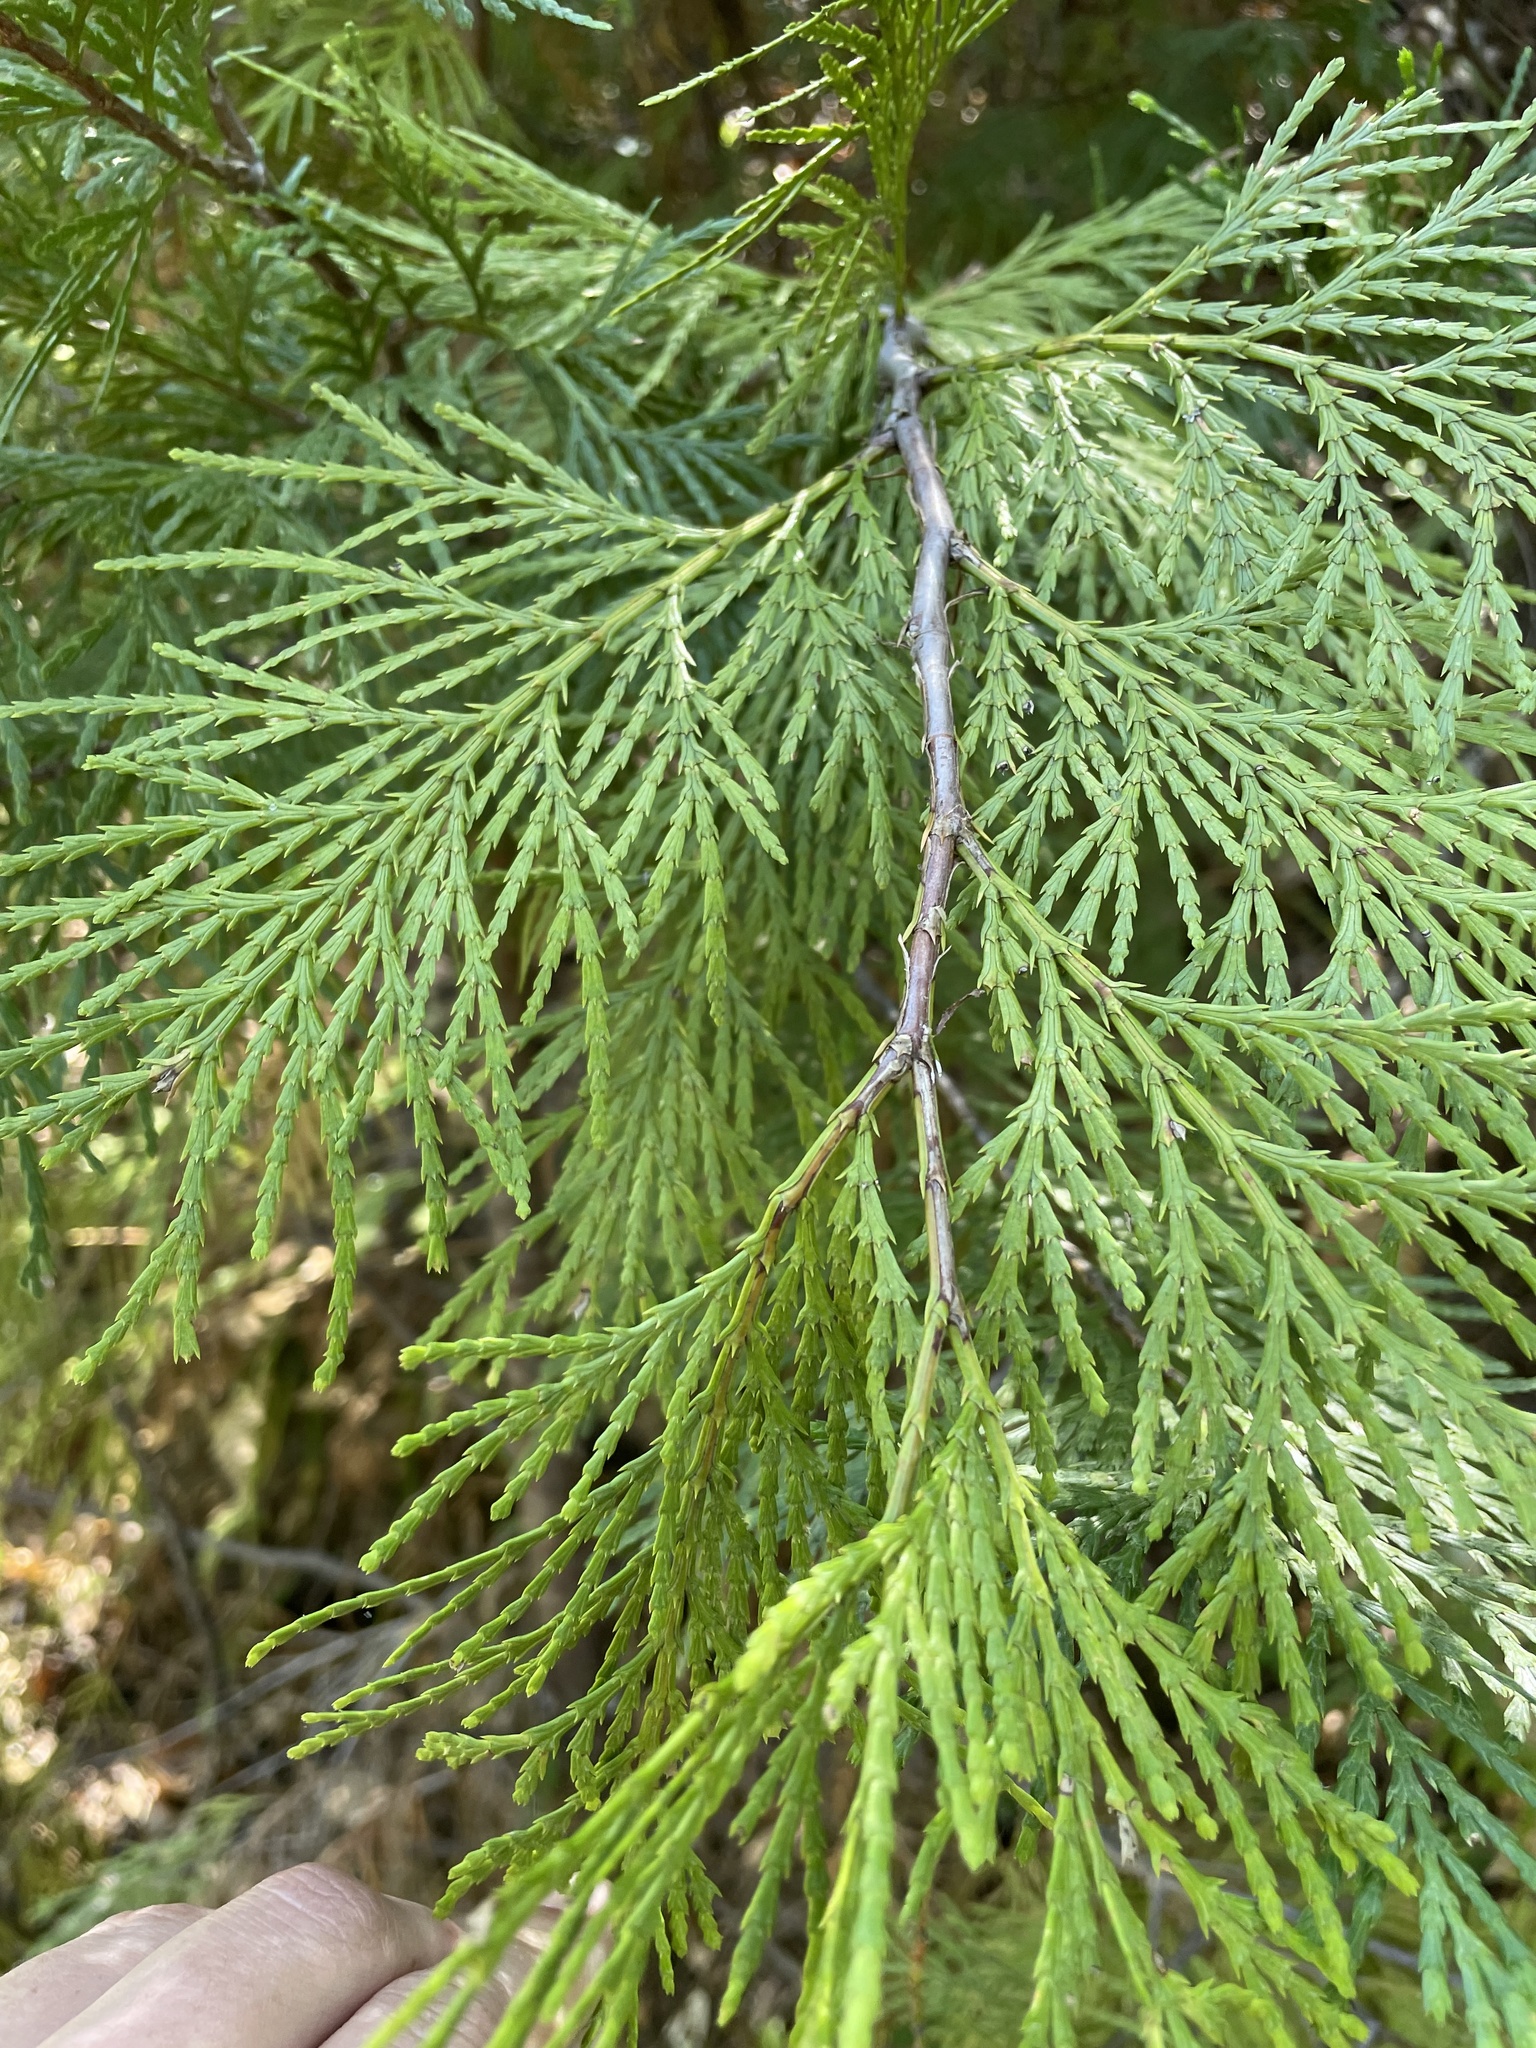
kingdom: Plantae
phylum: Tracheophyta
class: Pinopsida
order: Pinales
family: Cupressaceae
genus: Calocedrus
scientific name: Calocedrus decurrens
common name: Californian incense-cedar
